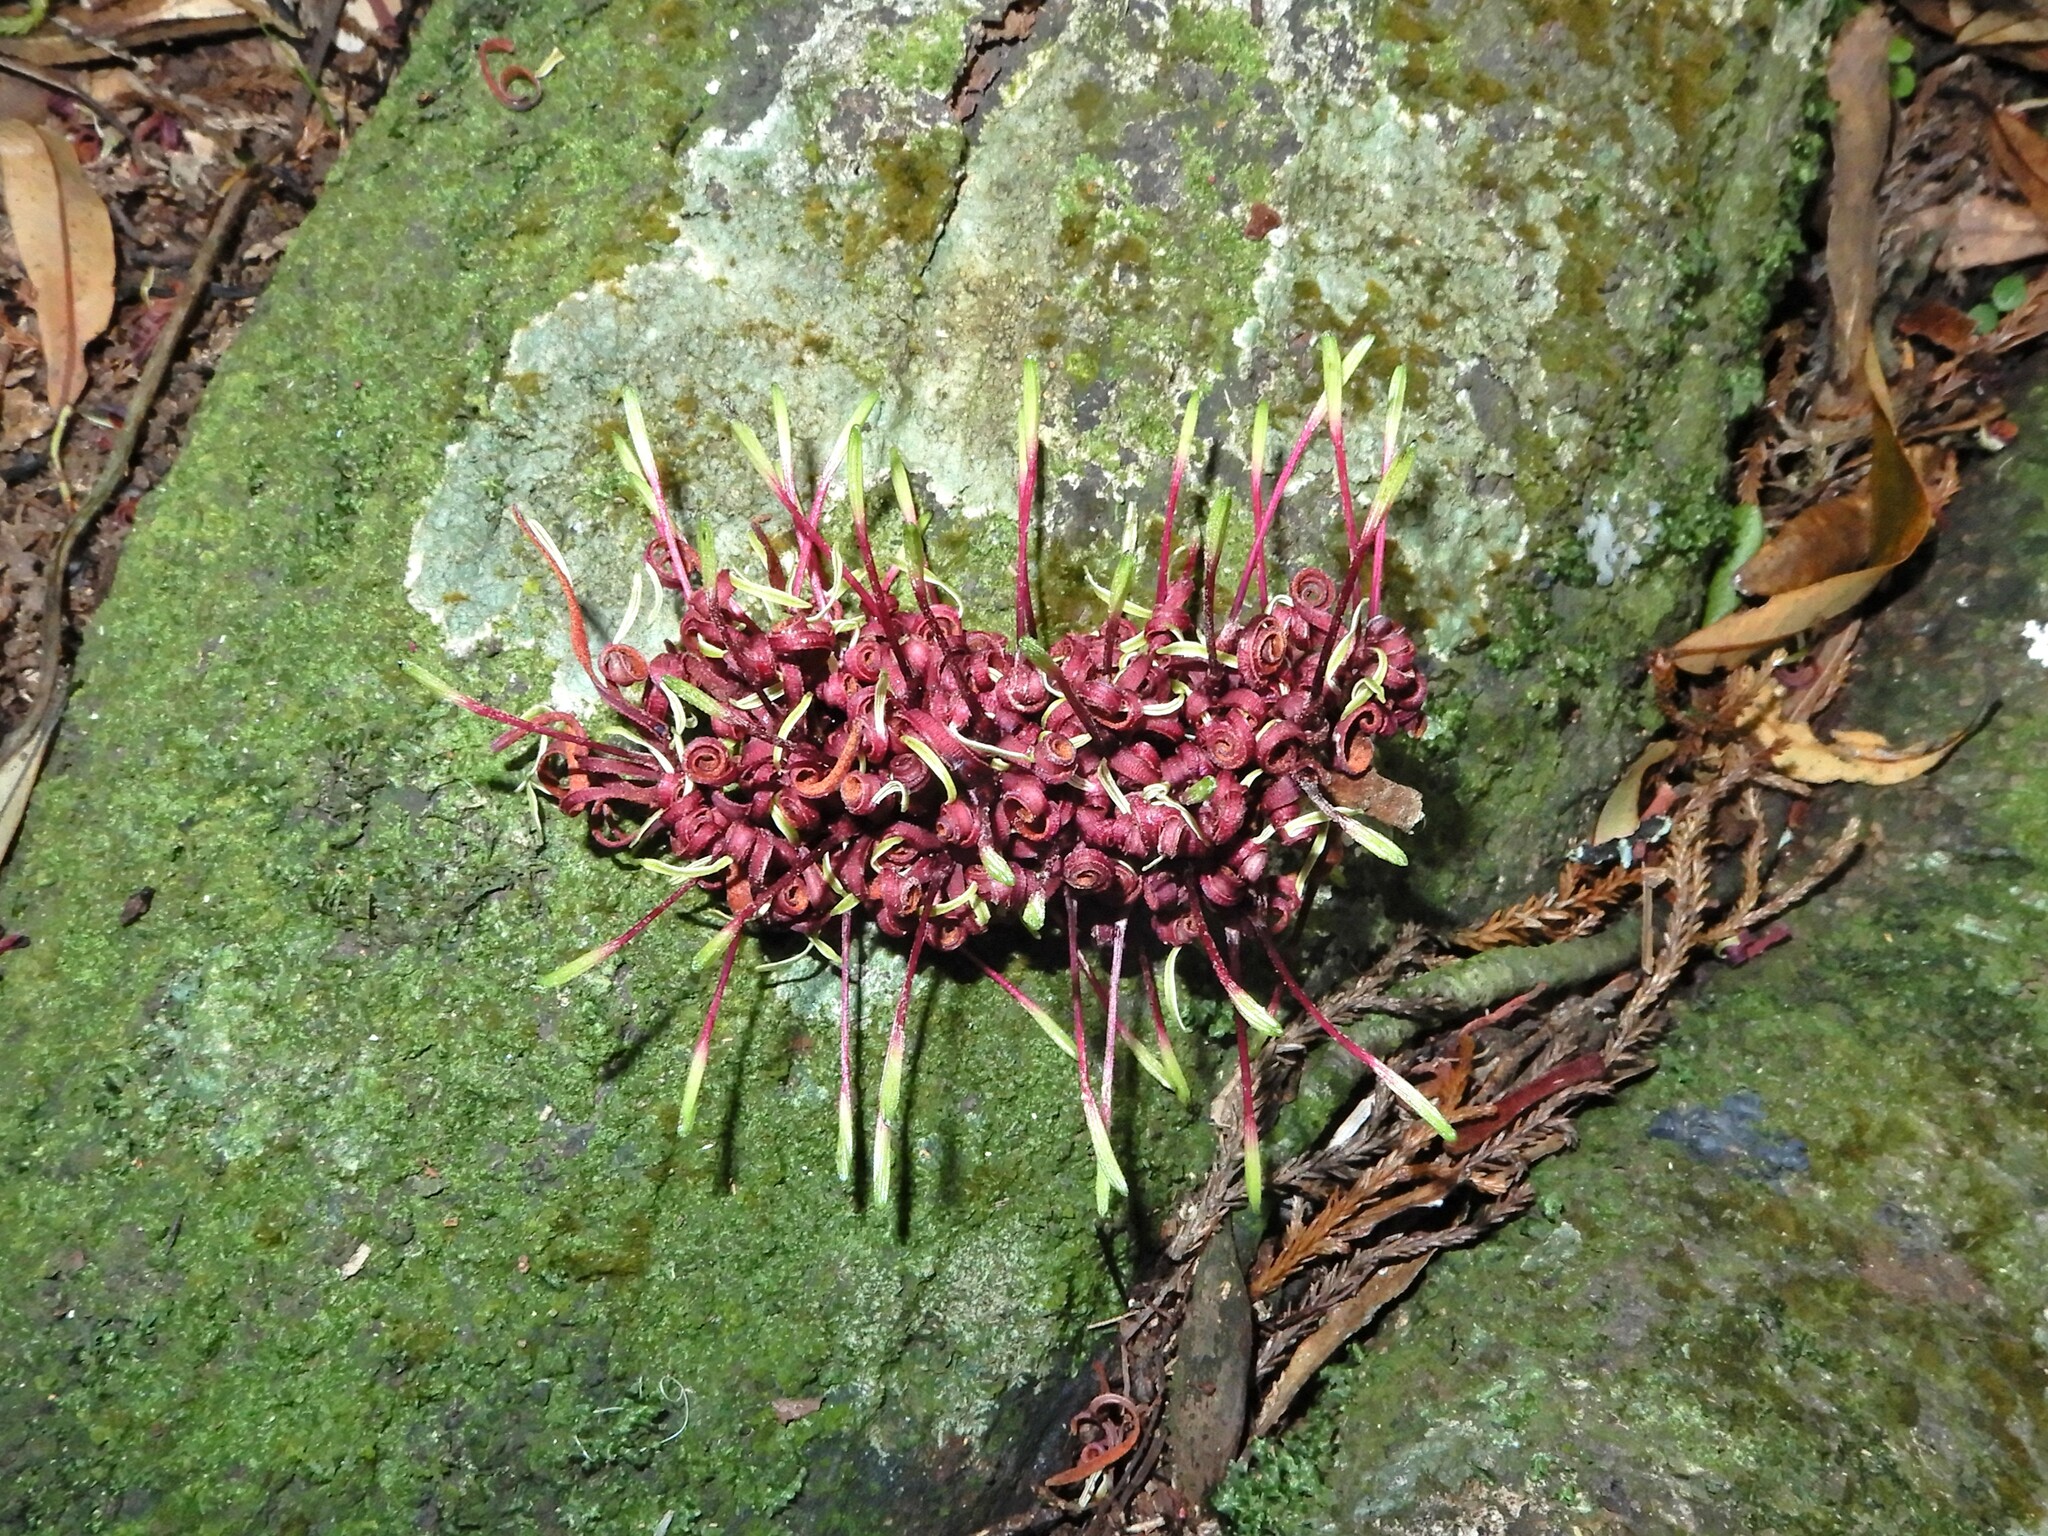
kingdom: Plantae
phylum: Tracheophyta
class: Magnoliopsida
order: Proteales
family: Proteaceae
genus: Knightia
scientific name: Knightia excelsa
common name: New zealand-honeysuckle
